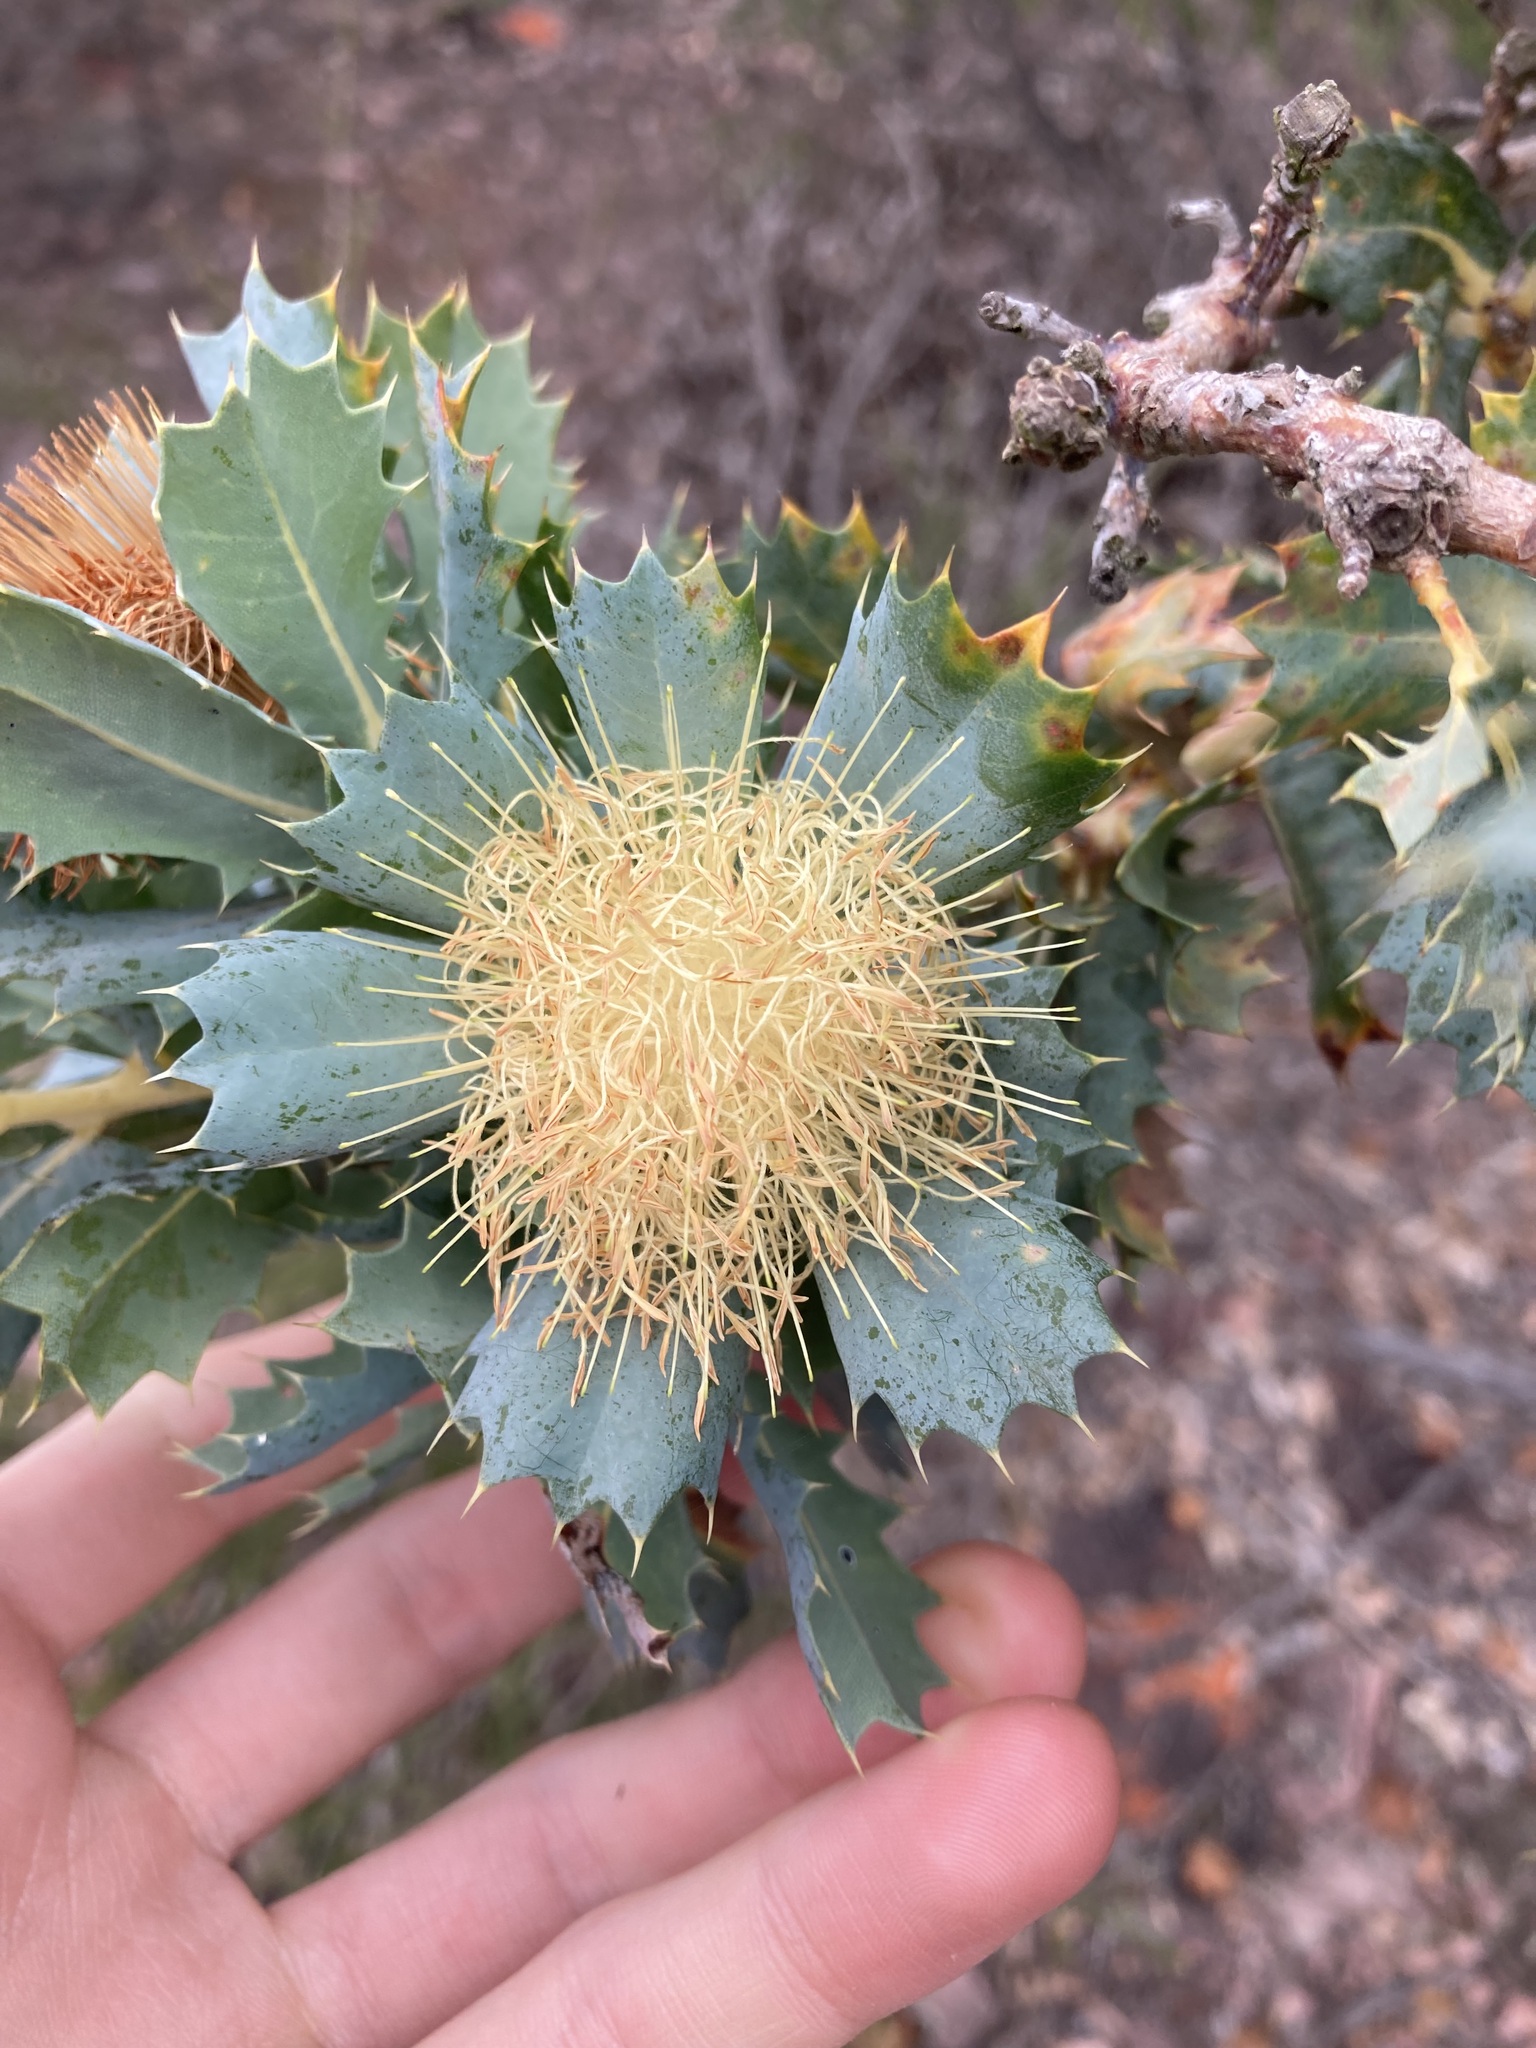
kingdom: Plantae
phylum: Tracheophyta
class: Magnoliopsida
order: Proteales
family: Proteaceae
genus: Banksia
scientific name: Banksia sessilis
